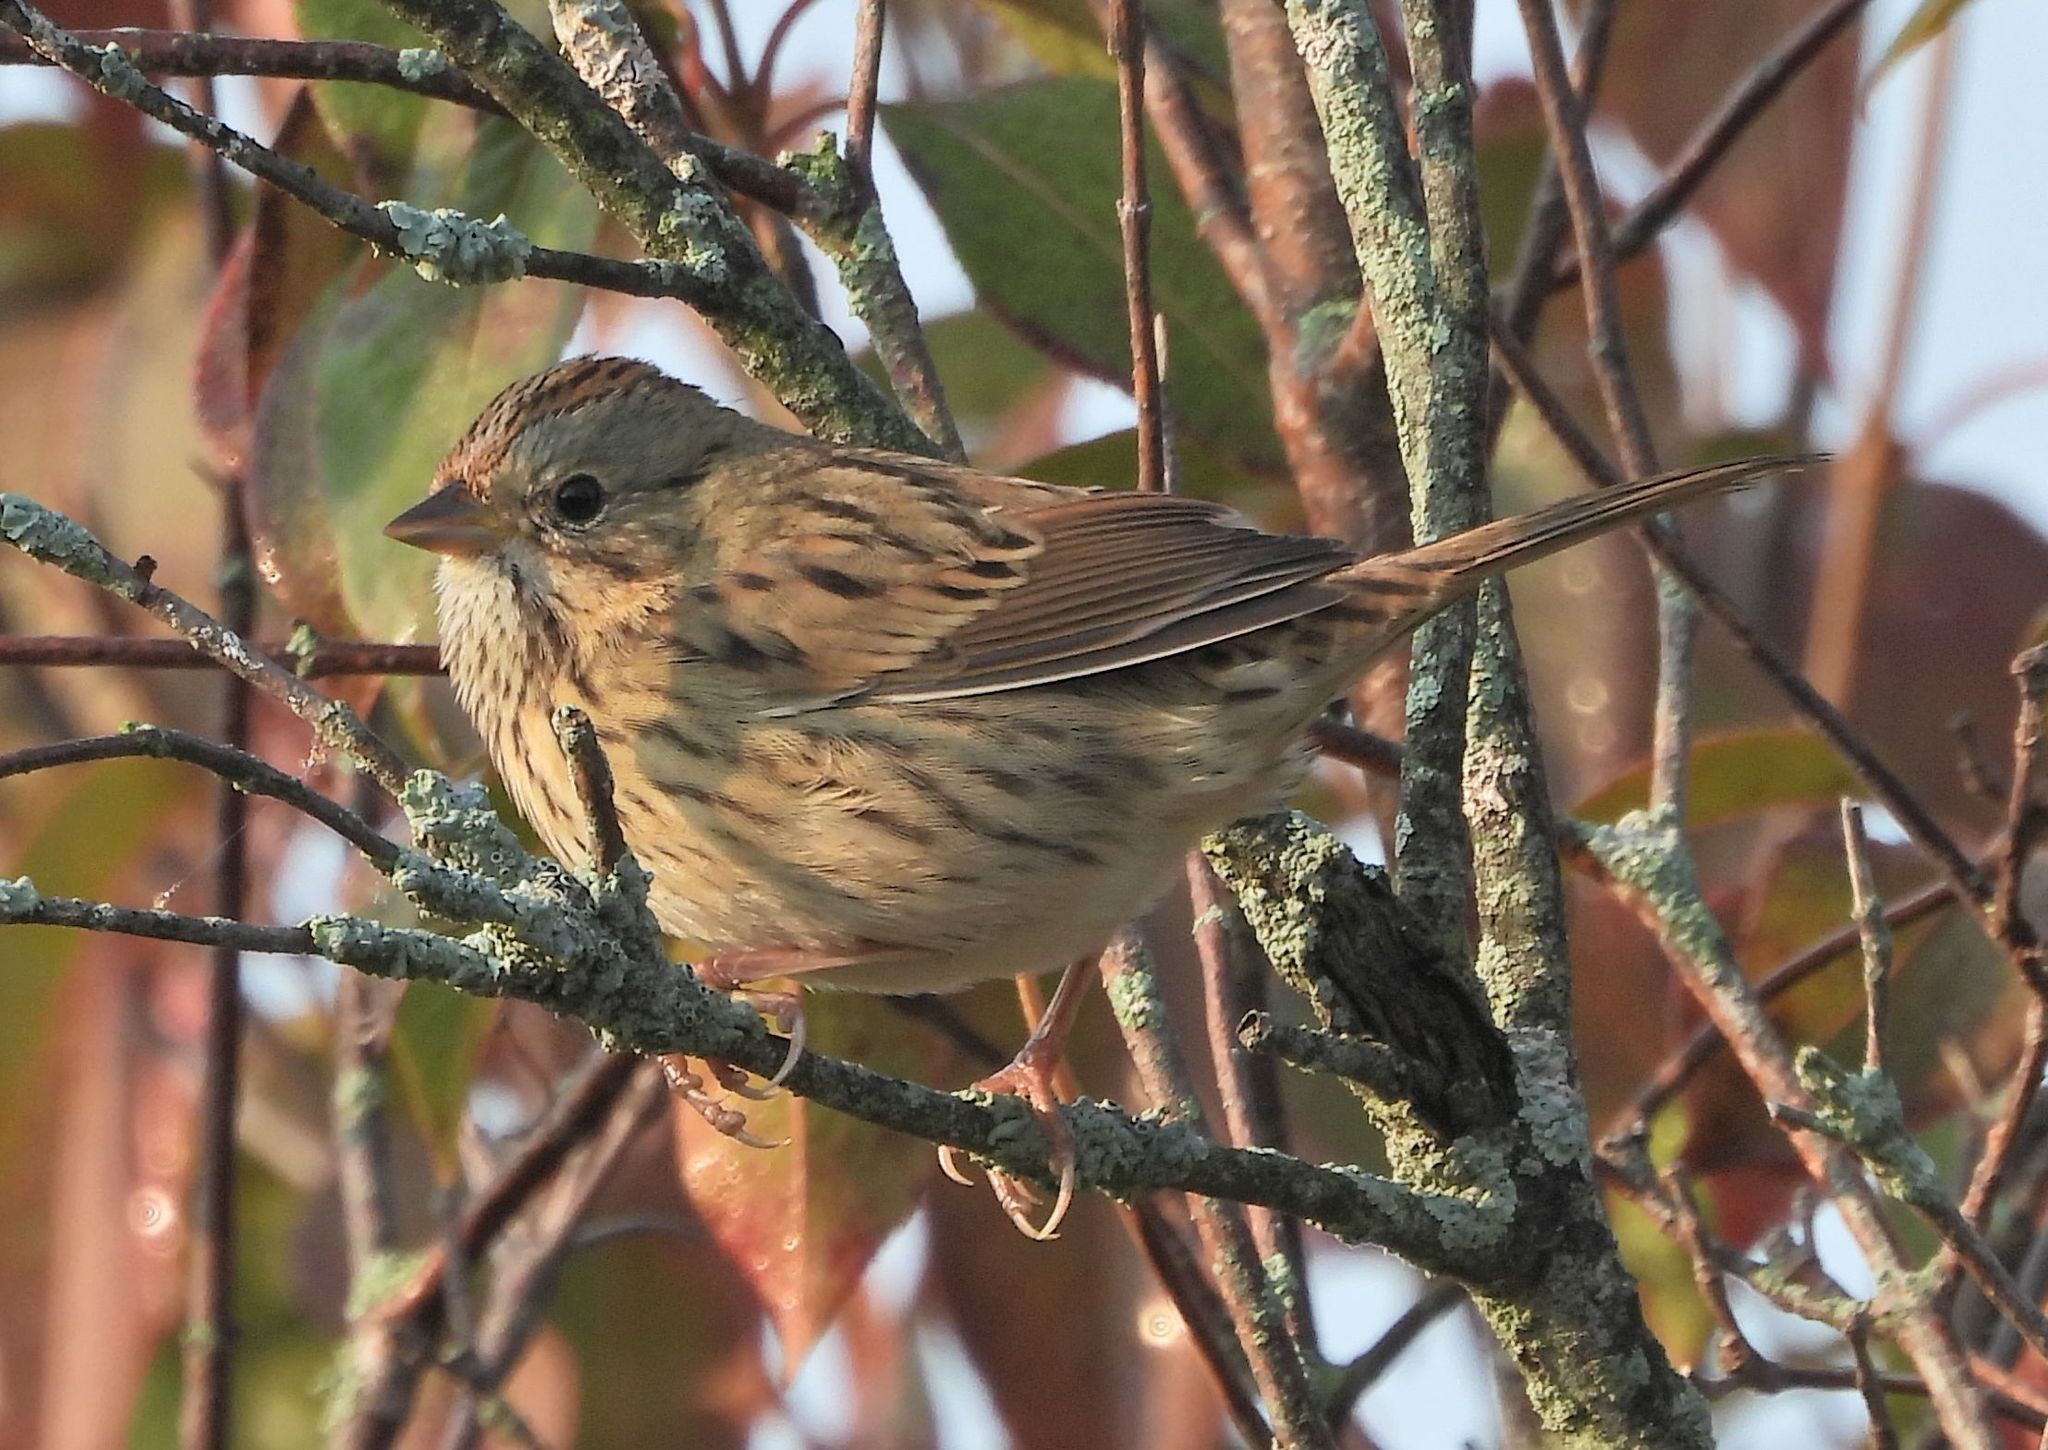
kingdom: Animalia
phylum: Chordata
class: Aves
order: Passeriformes
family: Passerellidae
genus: Melospiza
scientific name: Melospiza lincolnii
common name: Lincoln's sparrow
